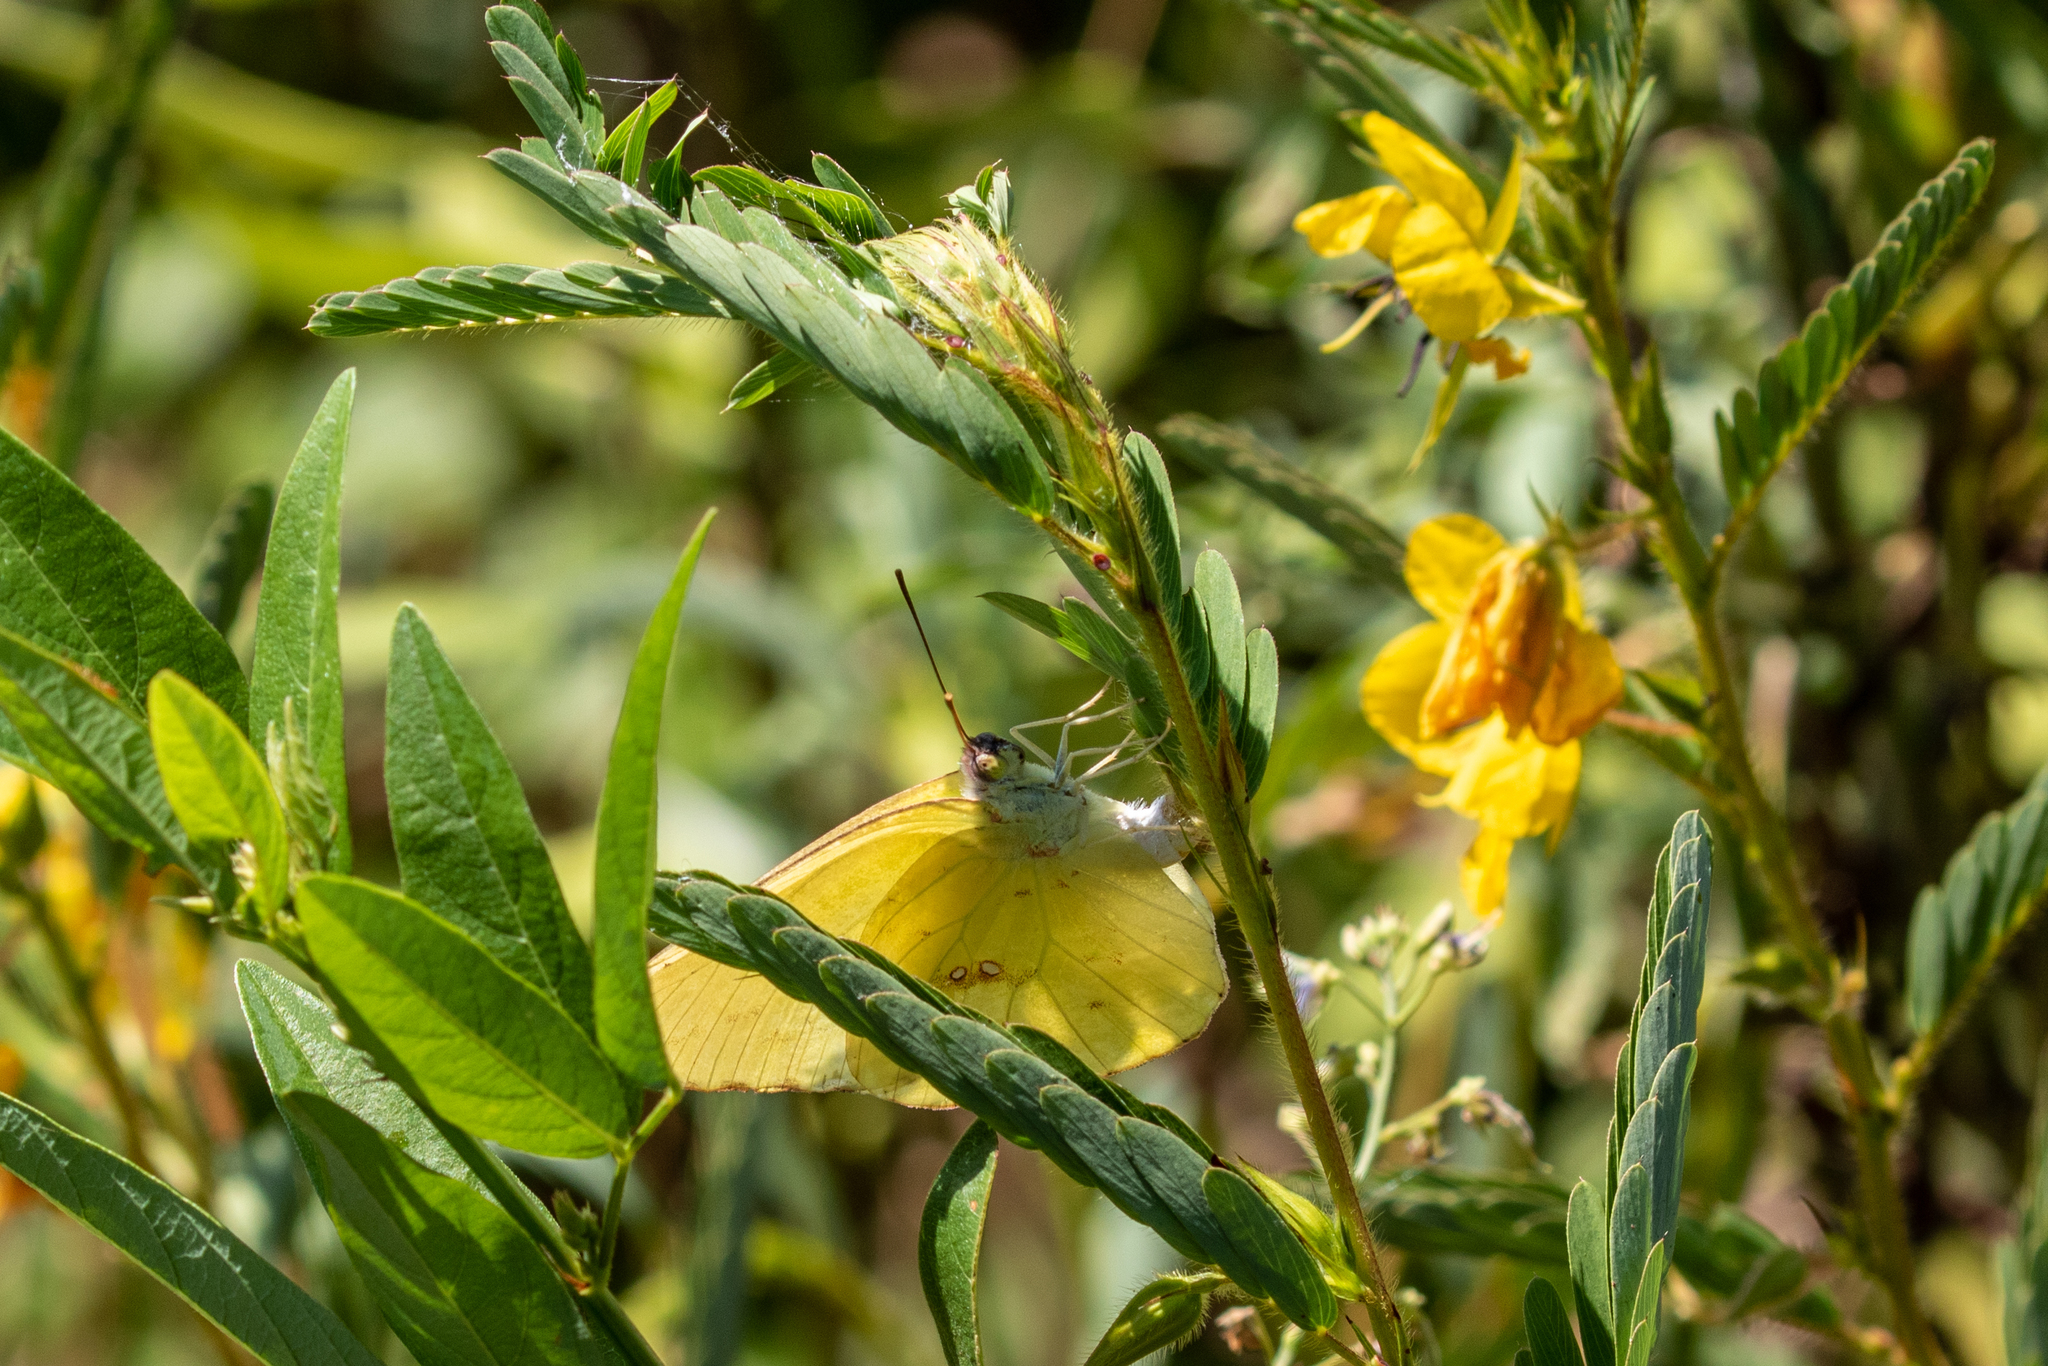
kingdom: Animalia
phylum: Arthropoda
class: Insecta
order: Lepidoptera
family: Pieridae
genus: Phoebis
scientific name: Phoebis sennae
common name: Cloudless sulphur
